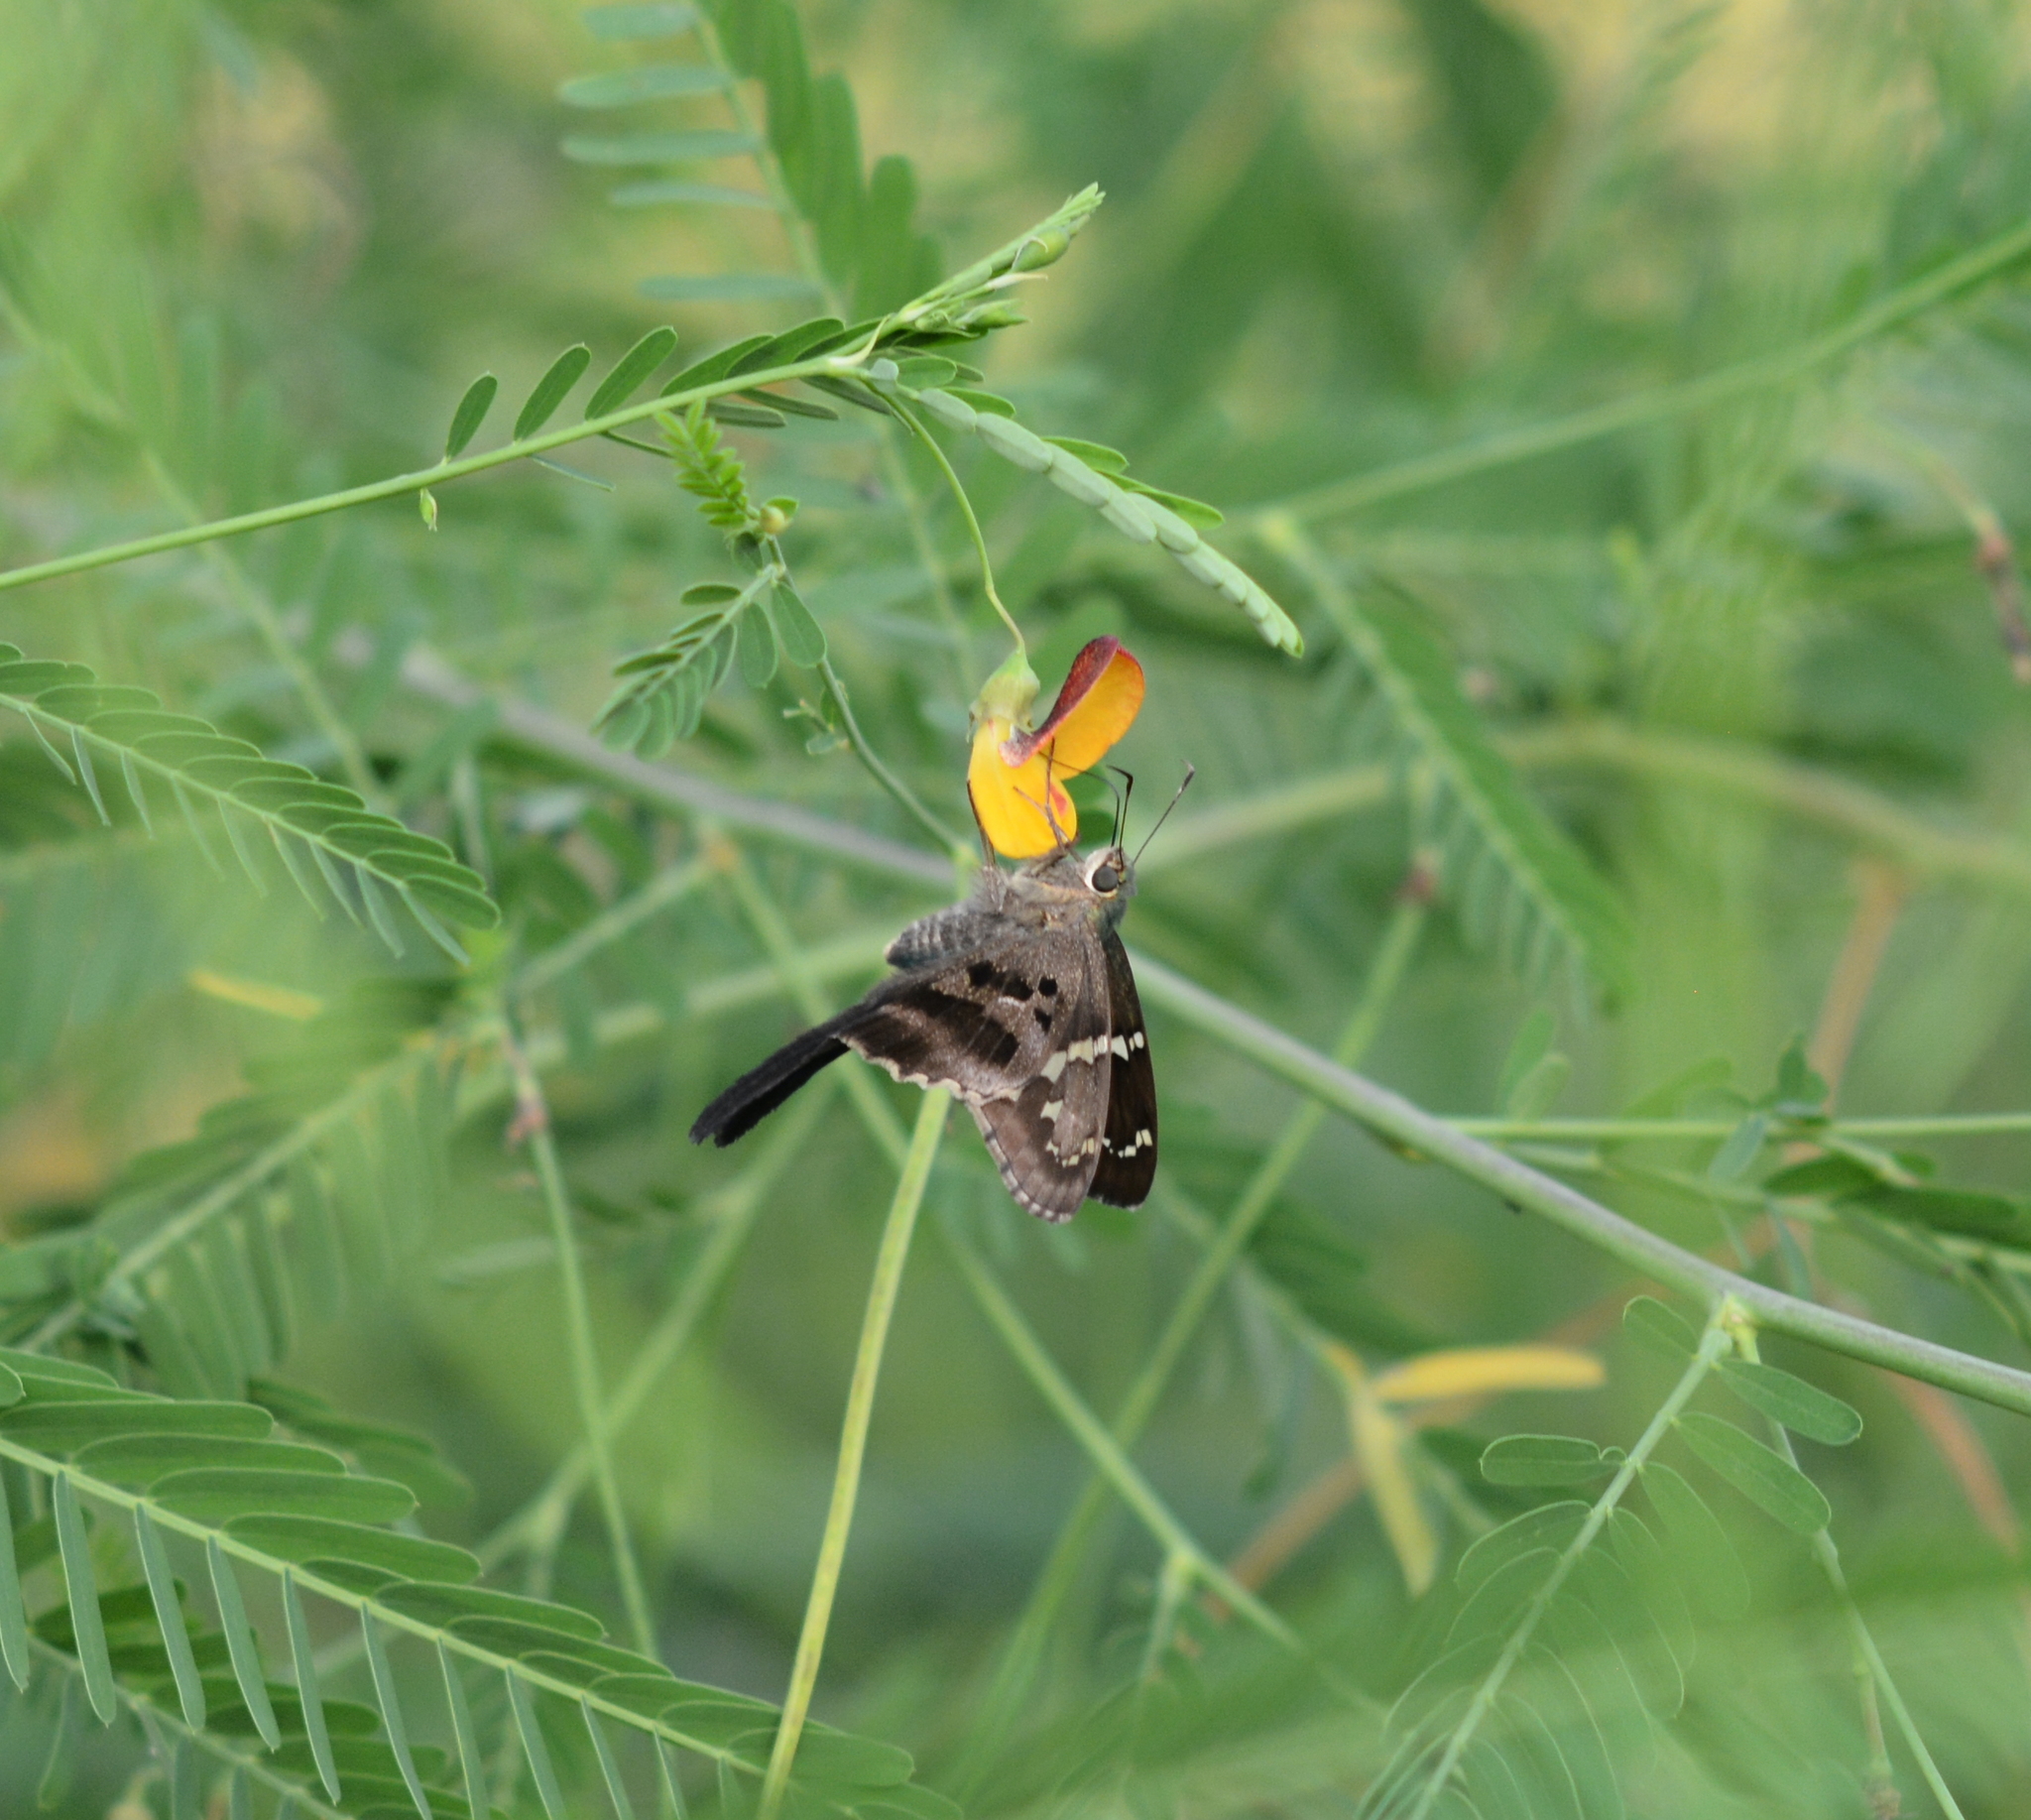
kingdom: Animalia
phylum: Arthropoda
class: Insecta
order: Lepidoptera
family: Hesperiidae
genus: Urbanus
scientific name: Urbanus proteus
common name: Long-tailed skipper
